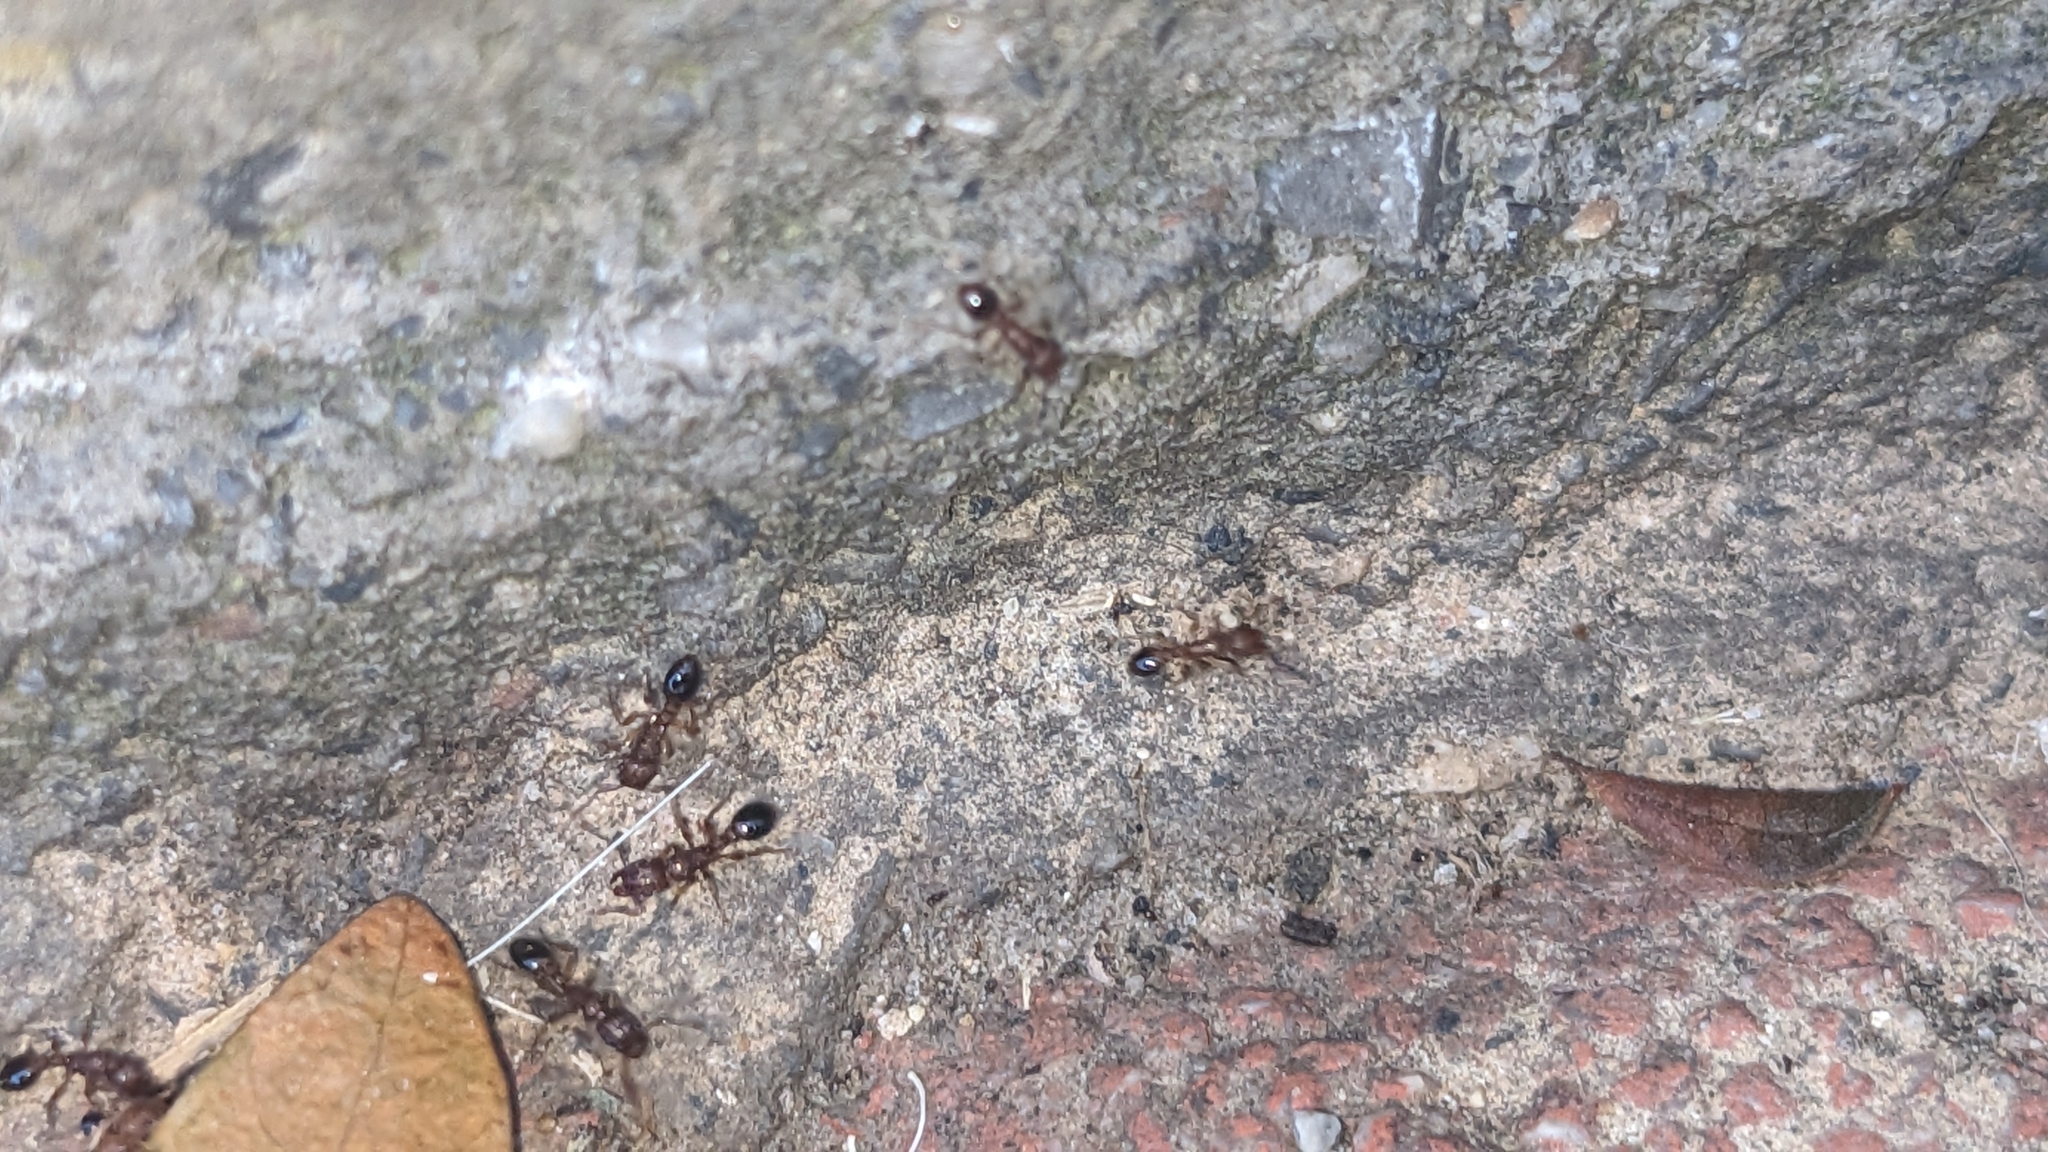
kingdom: Animalia
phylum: Arthropoda
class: Insecta
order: Hymenoptera
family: Formicidae
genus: Tetramorium
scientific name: Tetramorium bicarinatum
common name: Guinea ant
